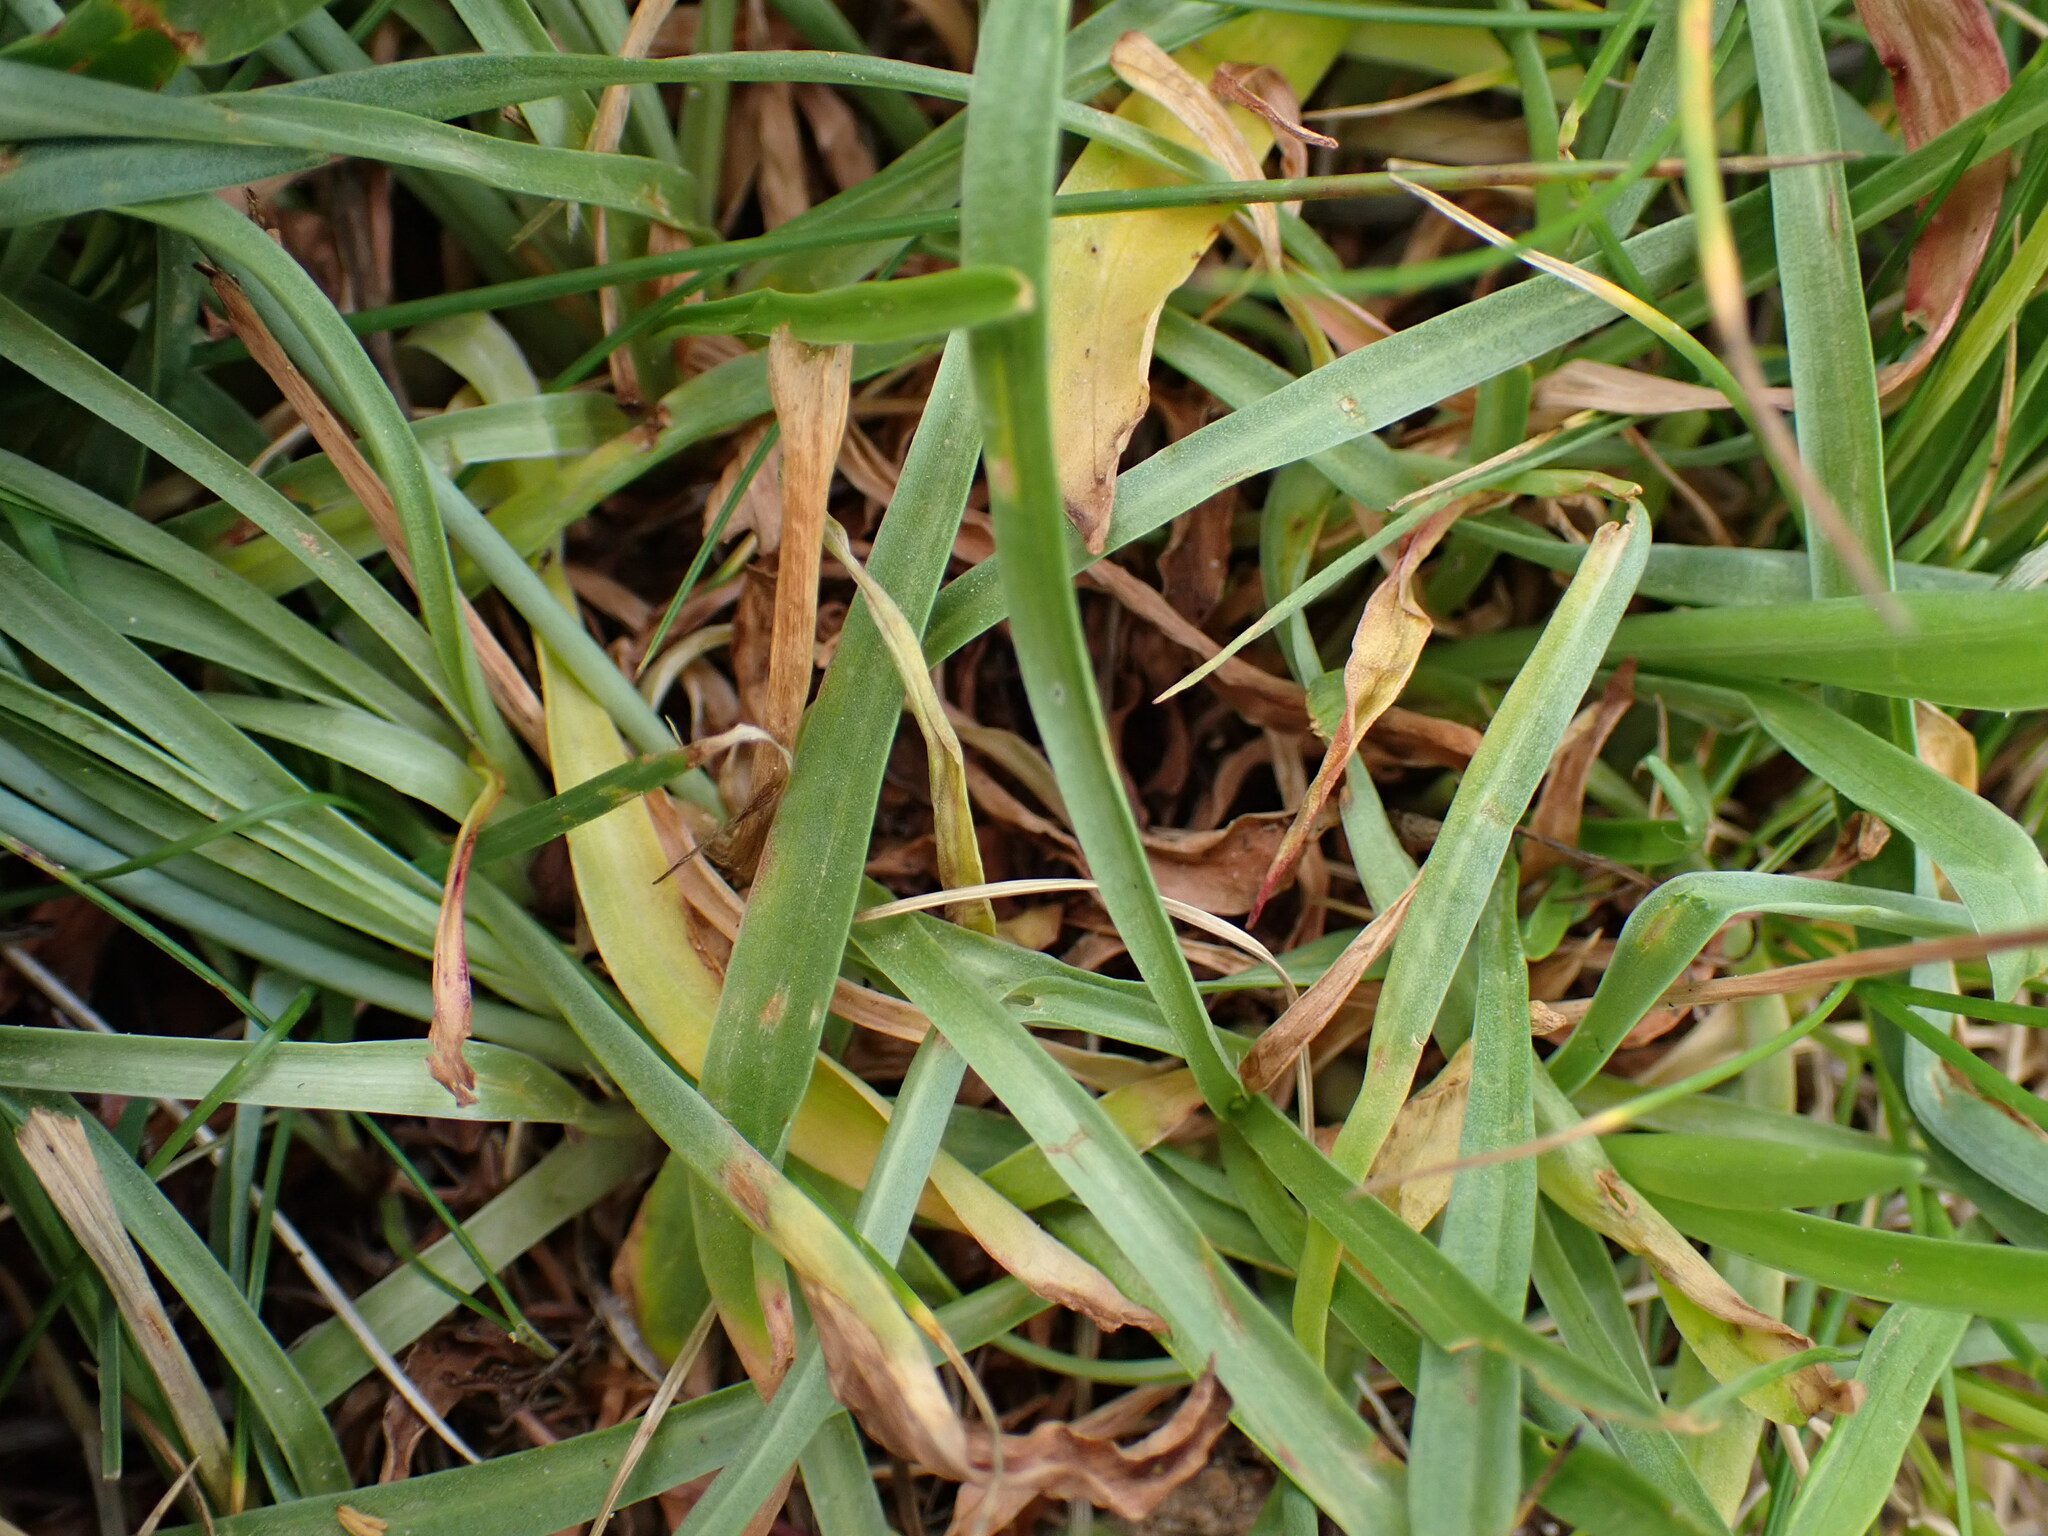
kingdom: Plantae
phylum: Tracheophyta
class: Magnoliopsida
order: Caryophyllales
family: Plumbaginaceae
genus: Armeria
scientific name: Armeria arenaria
